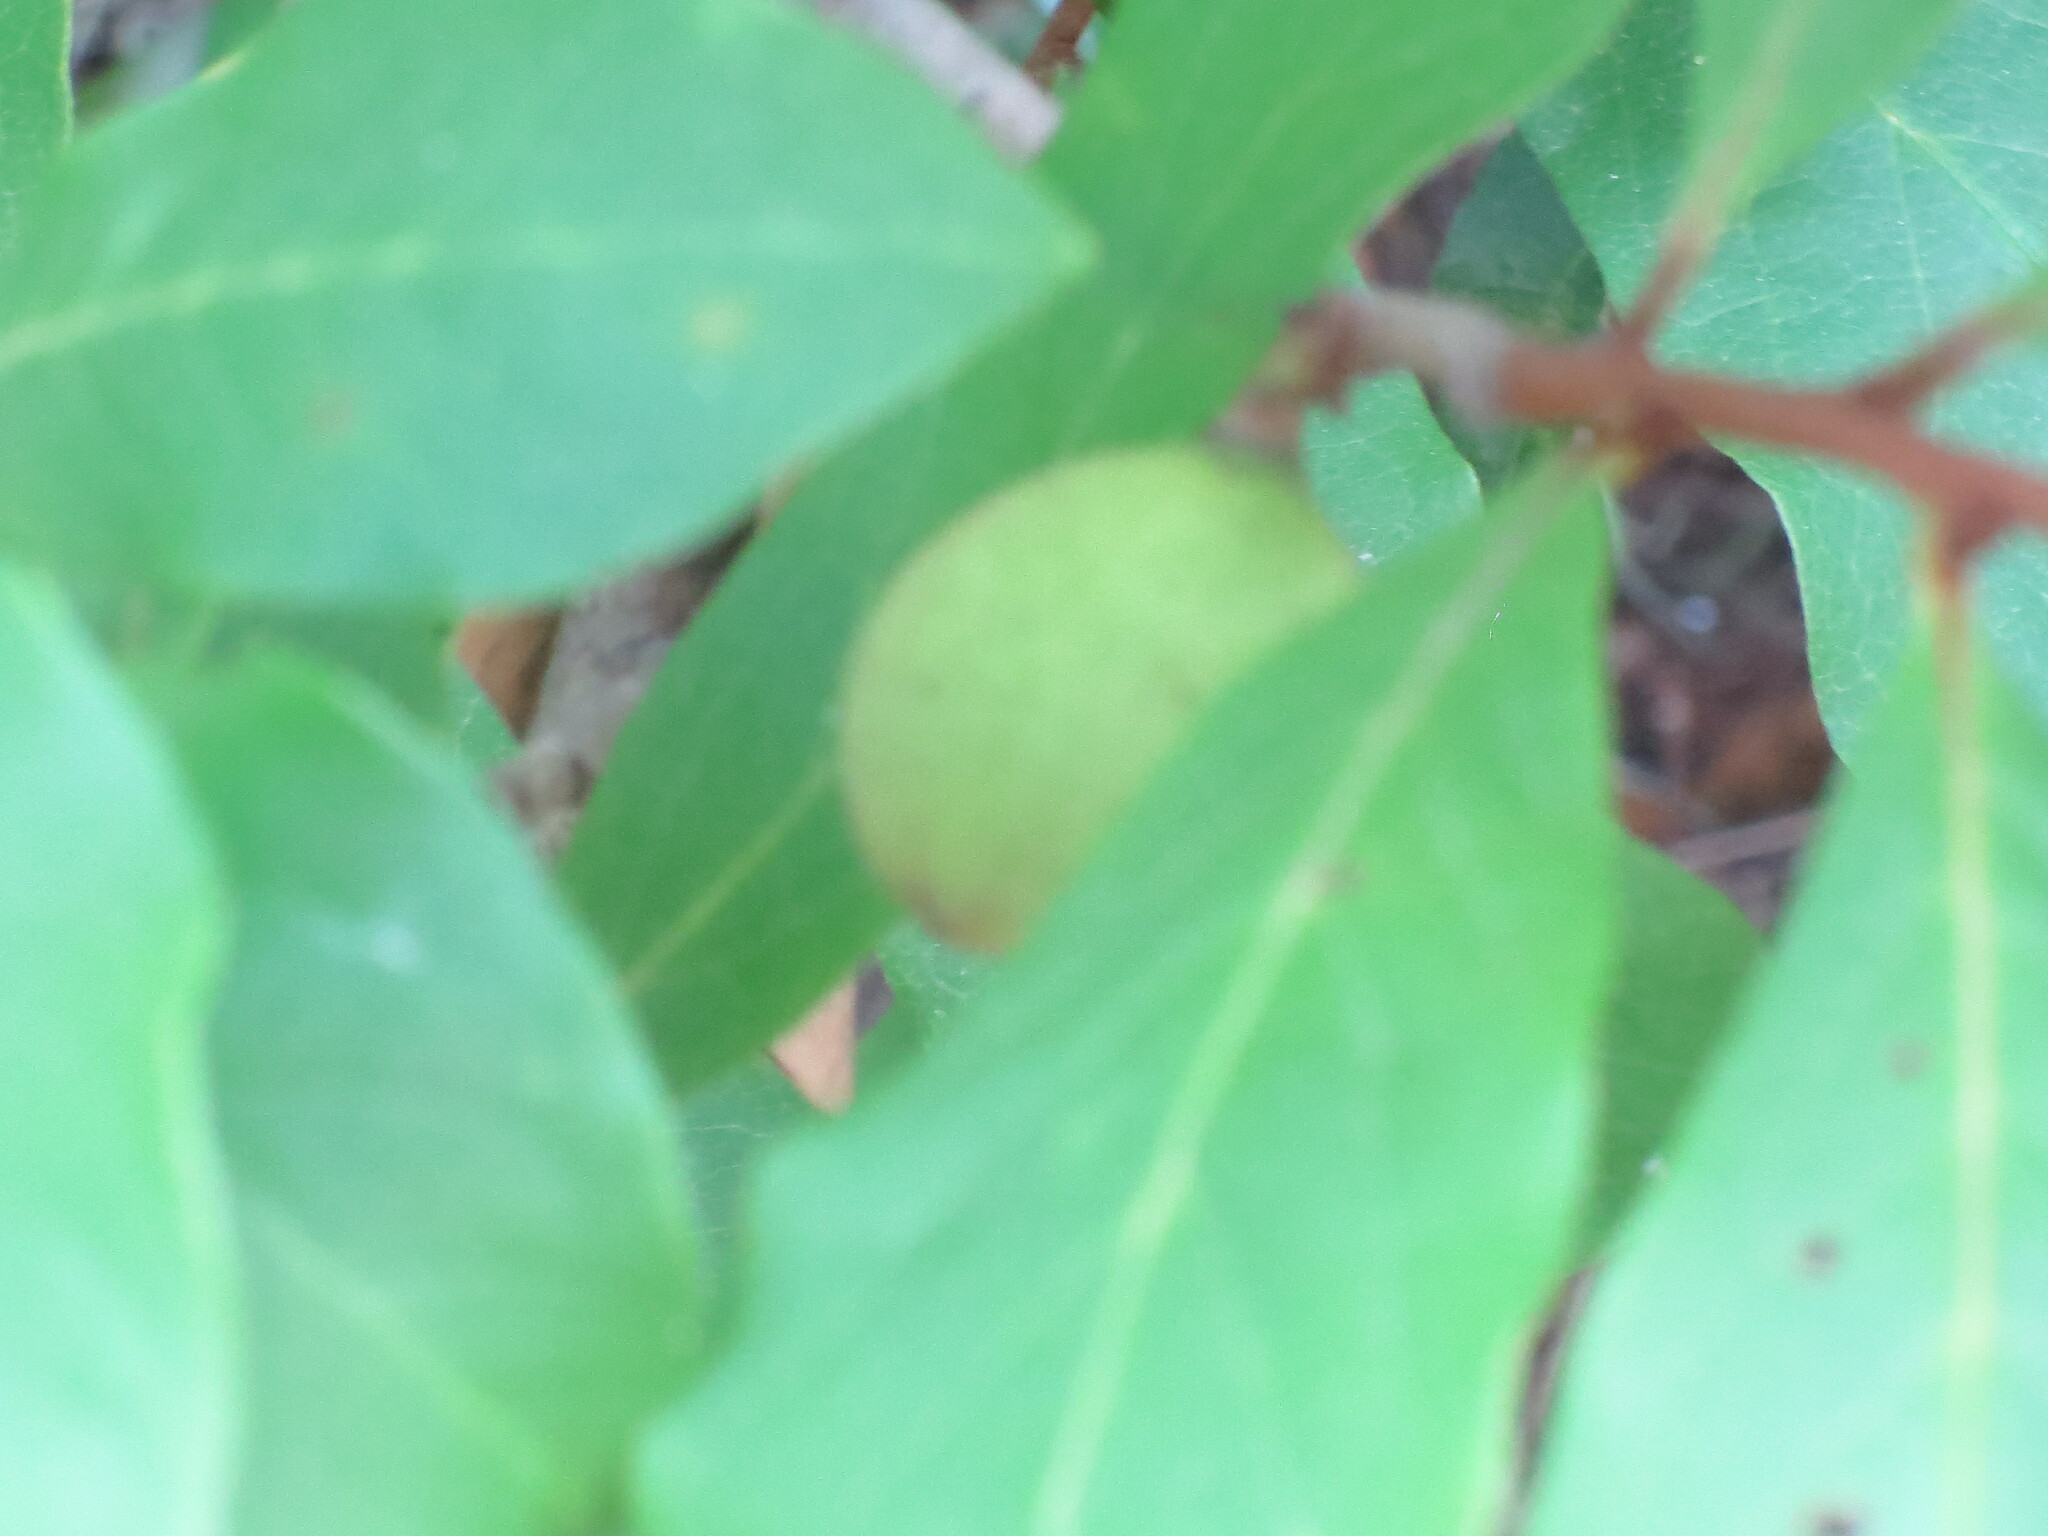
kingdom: Plantae
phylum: Tracheophyta
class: Magnoliopsida
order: Magnoliales
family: Annonaceae
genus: Asimina
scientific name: Asimina parviflora
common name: Dwarf pawpaw
